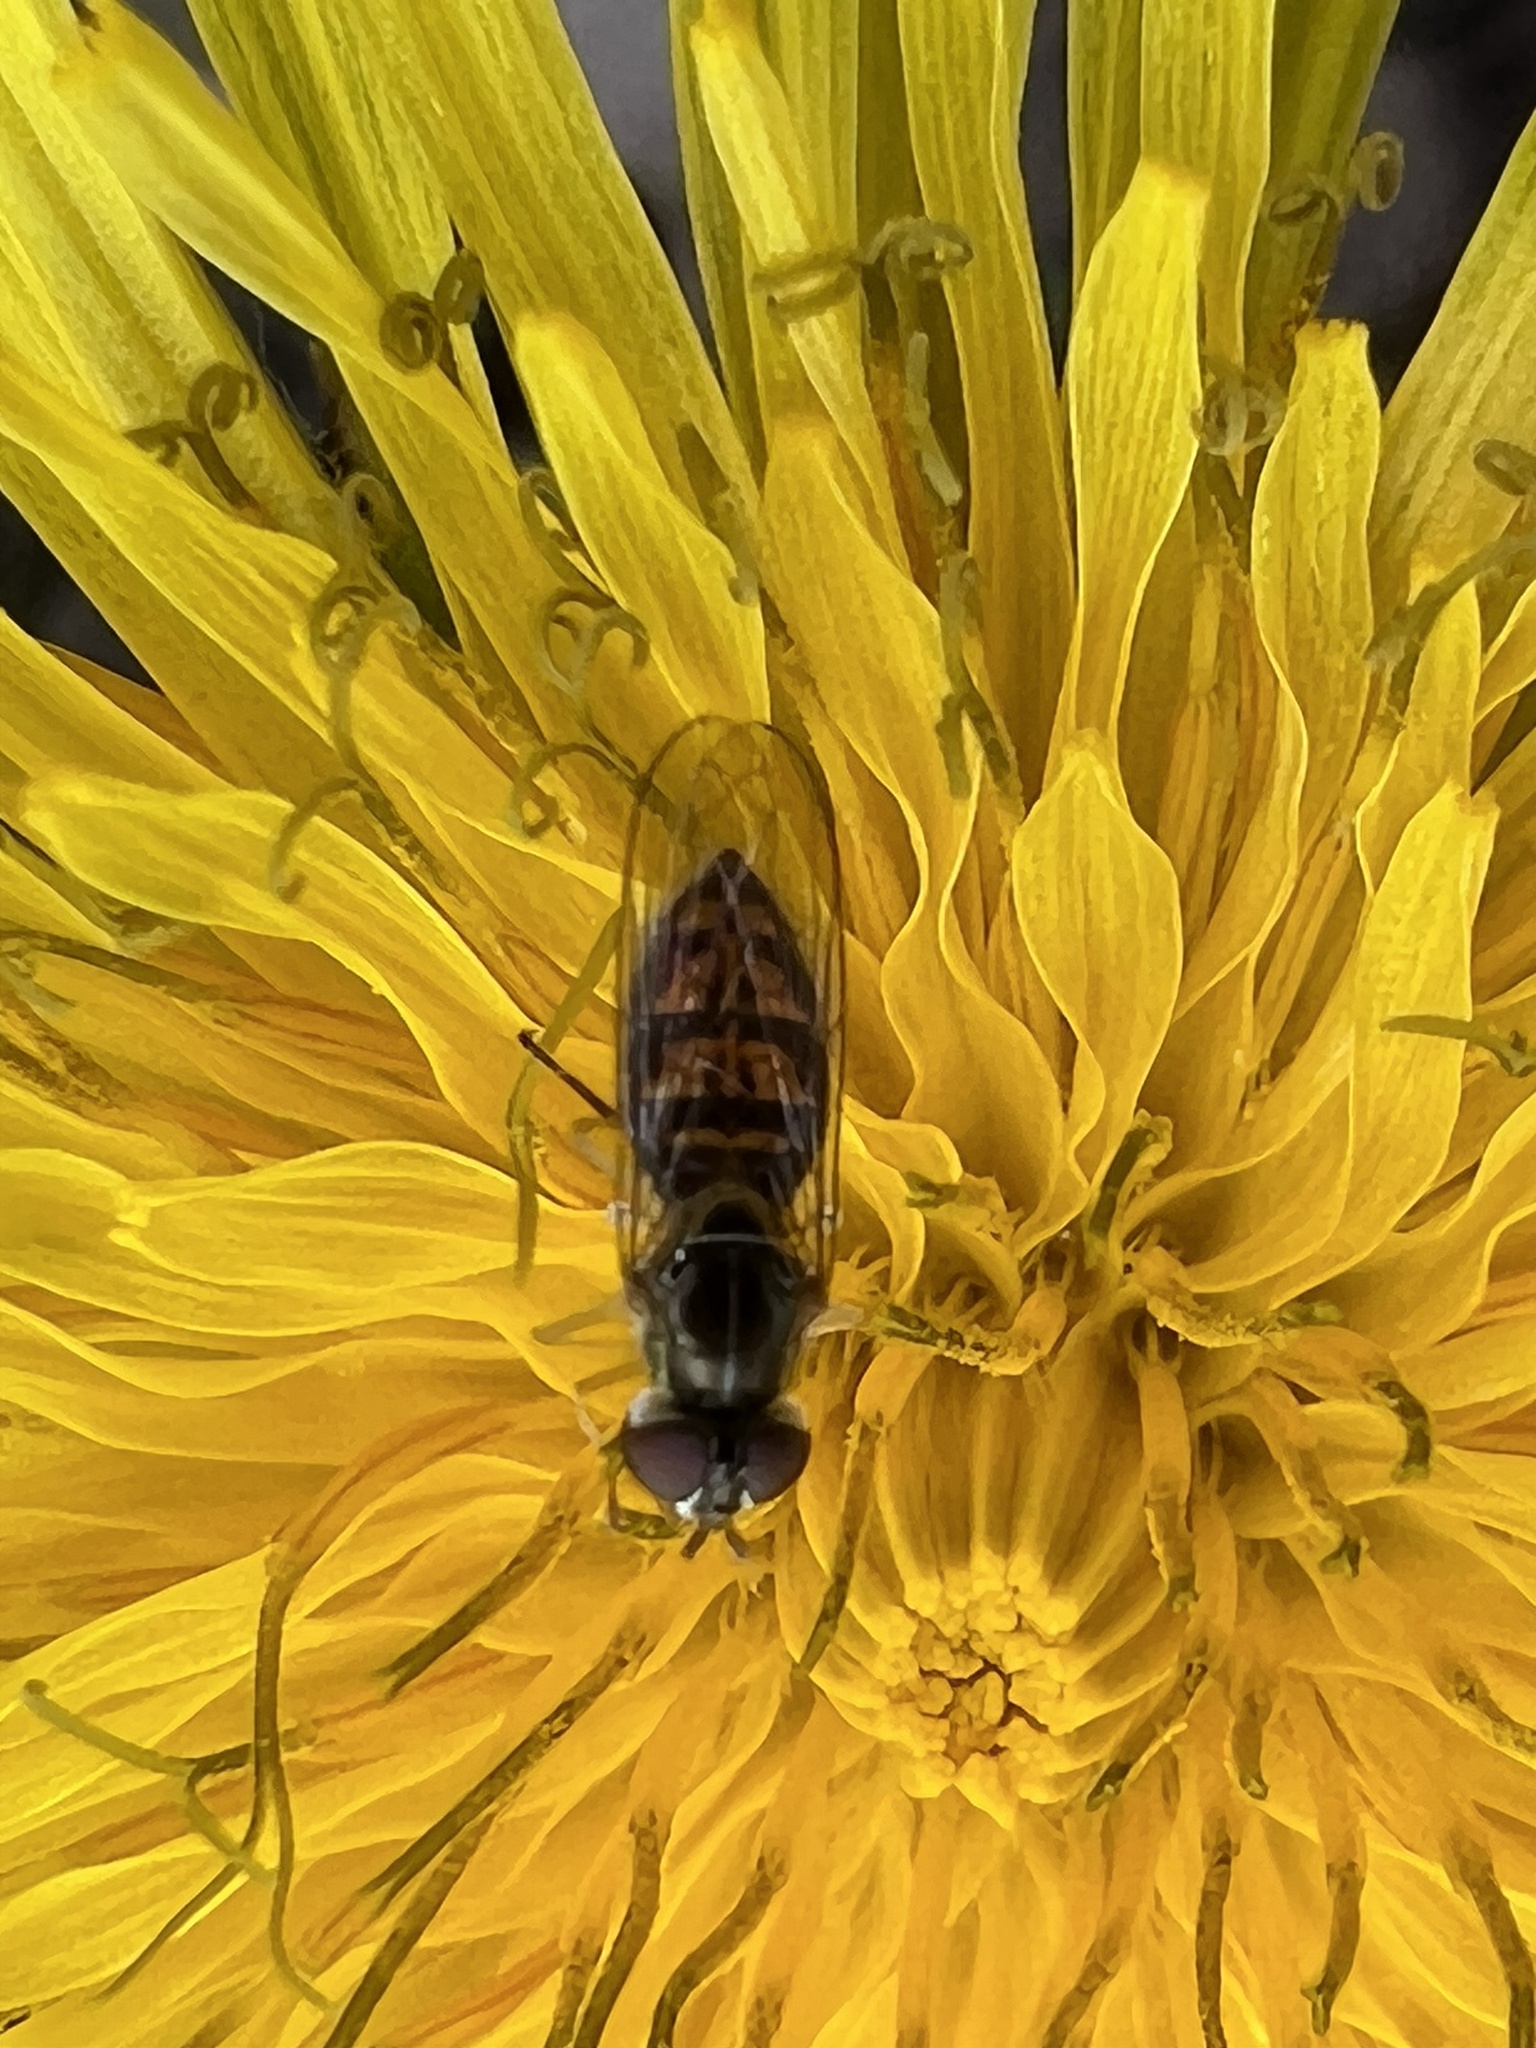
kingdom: Animalia
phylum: Arthropoda
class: Insecta
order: Diptera
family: Syrphidae
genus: Toxomerus
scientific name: Toxomerus marginatus
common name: Syrphid fly
